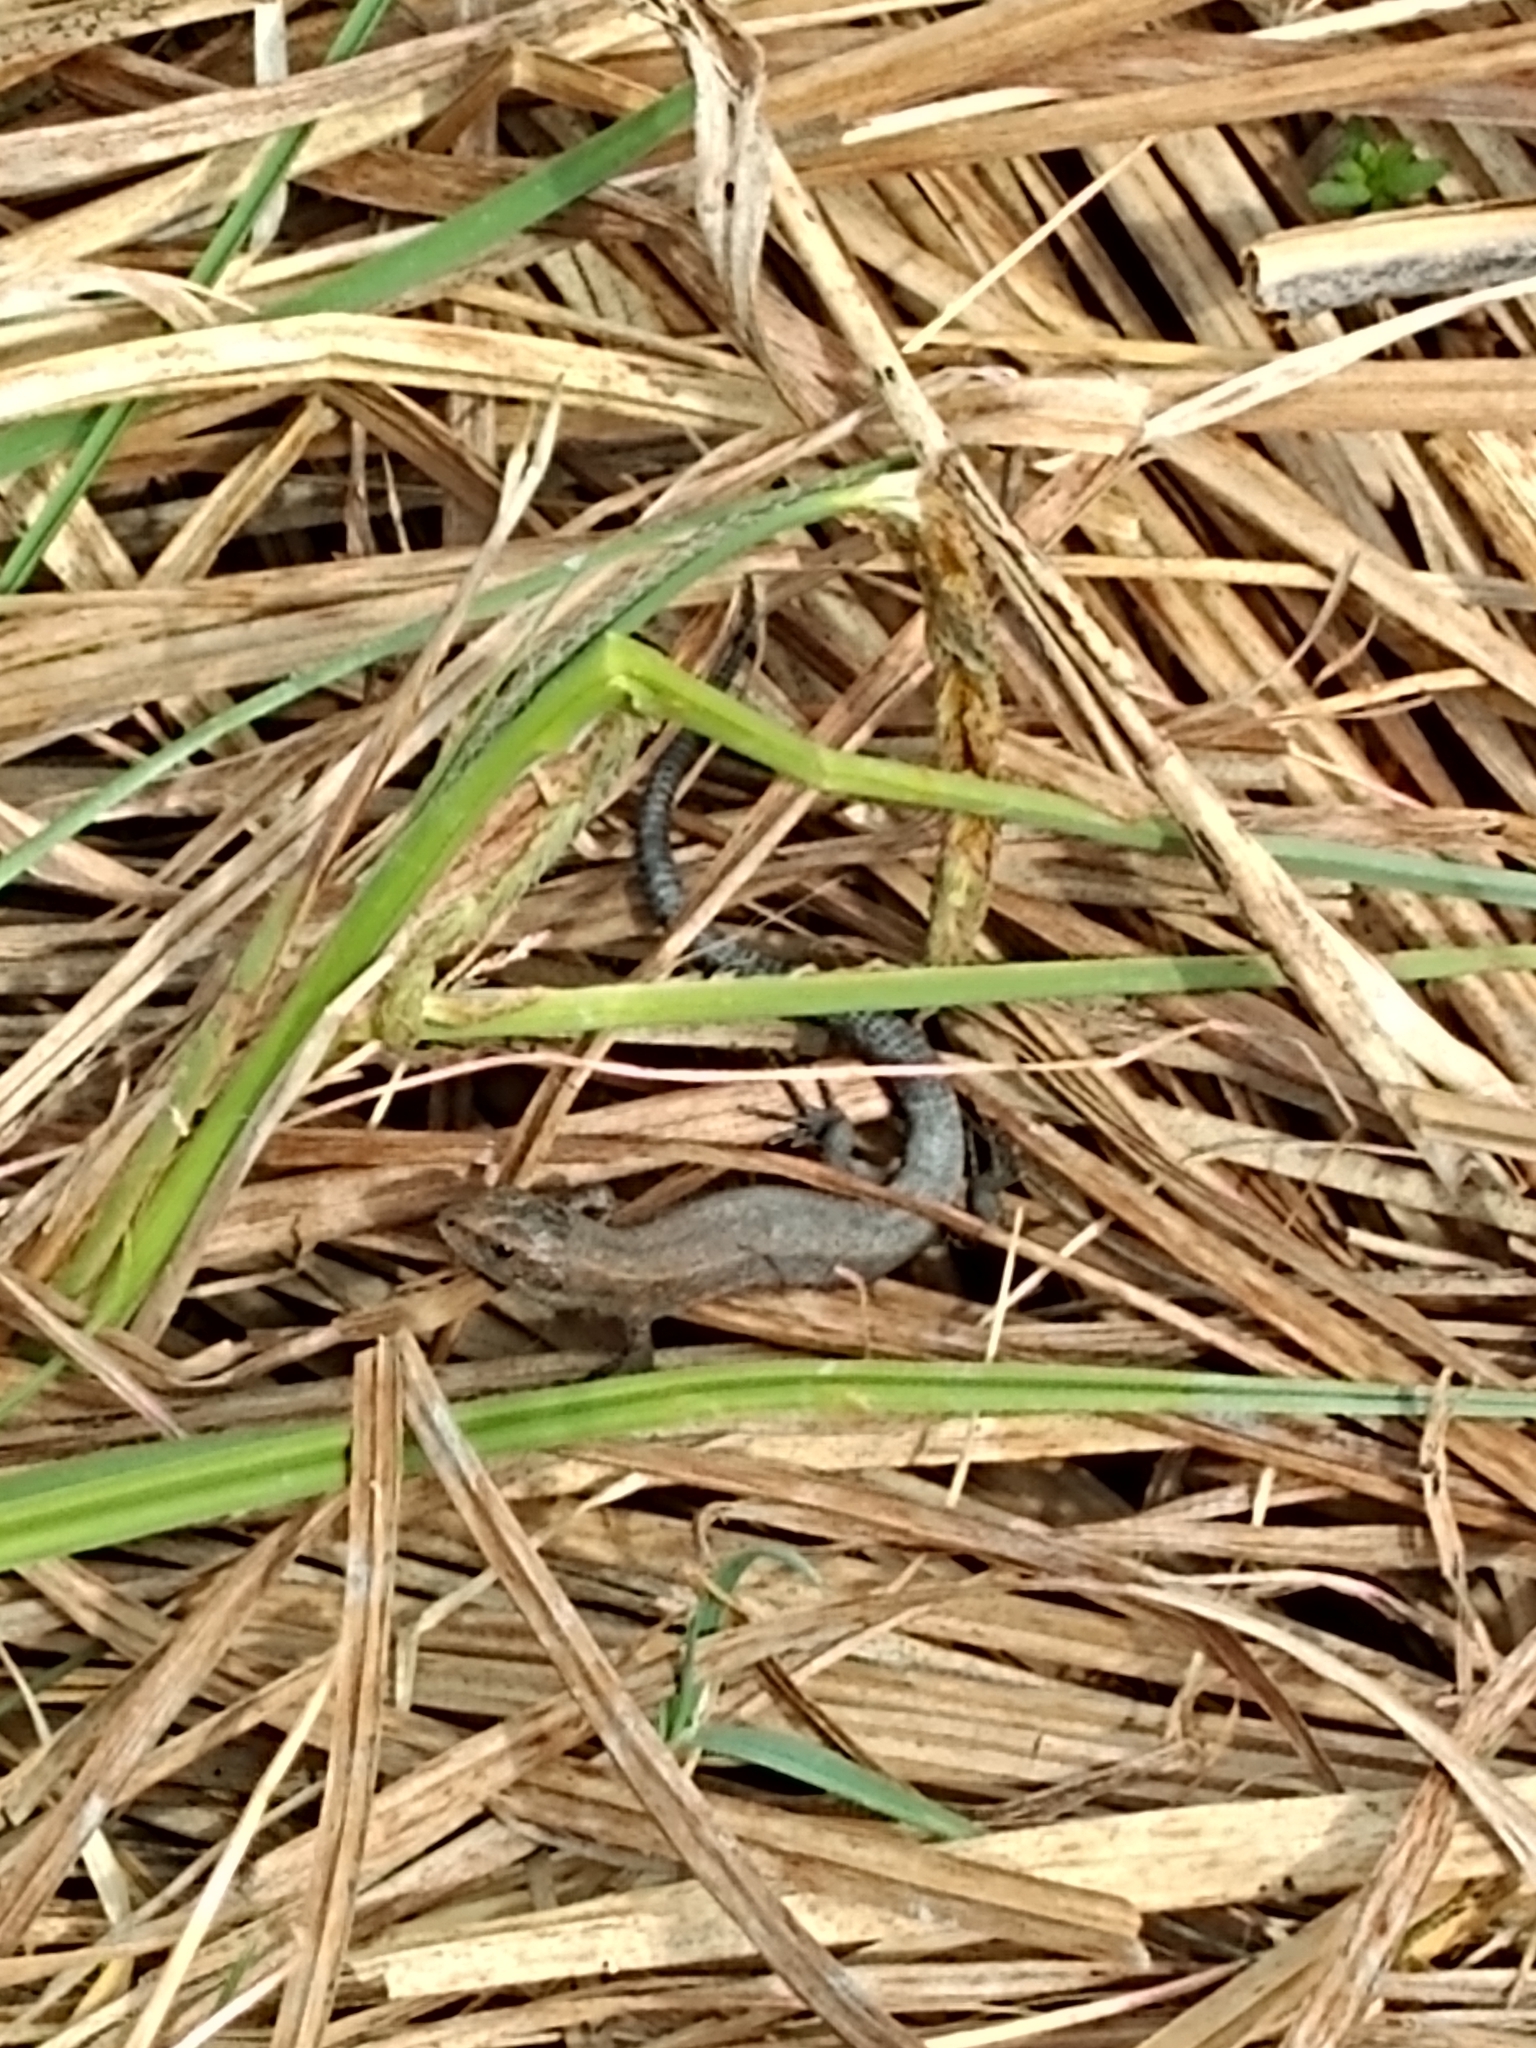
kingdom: Animalia
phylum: Chordata
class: Squamata
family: Lacertidae
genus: Zootoca
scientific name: Zootoca vivipara
